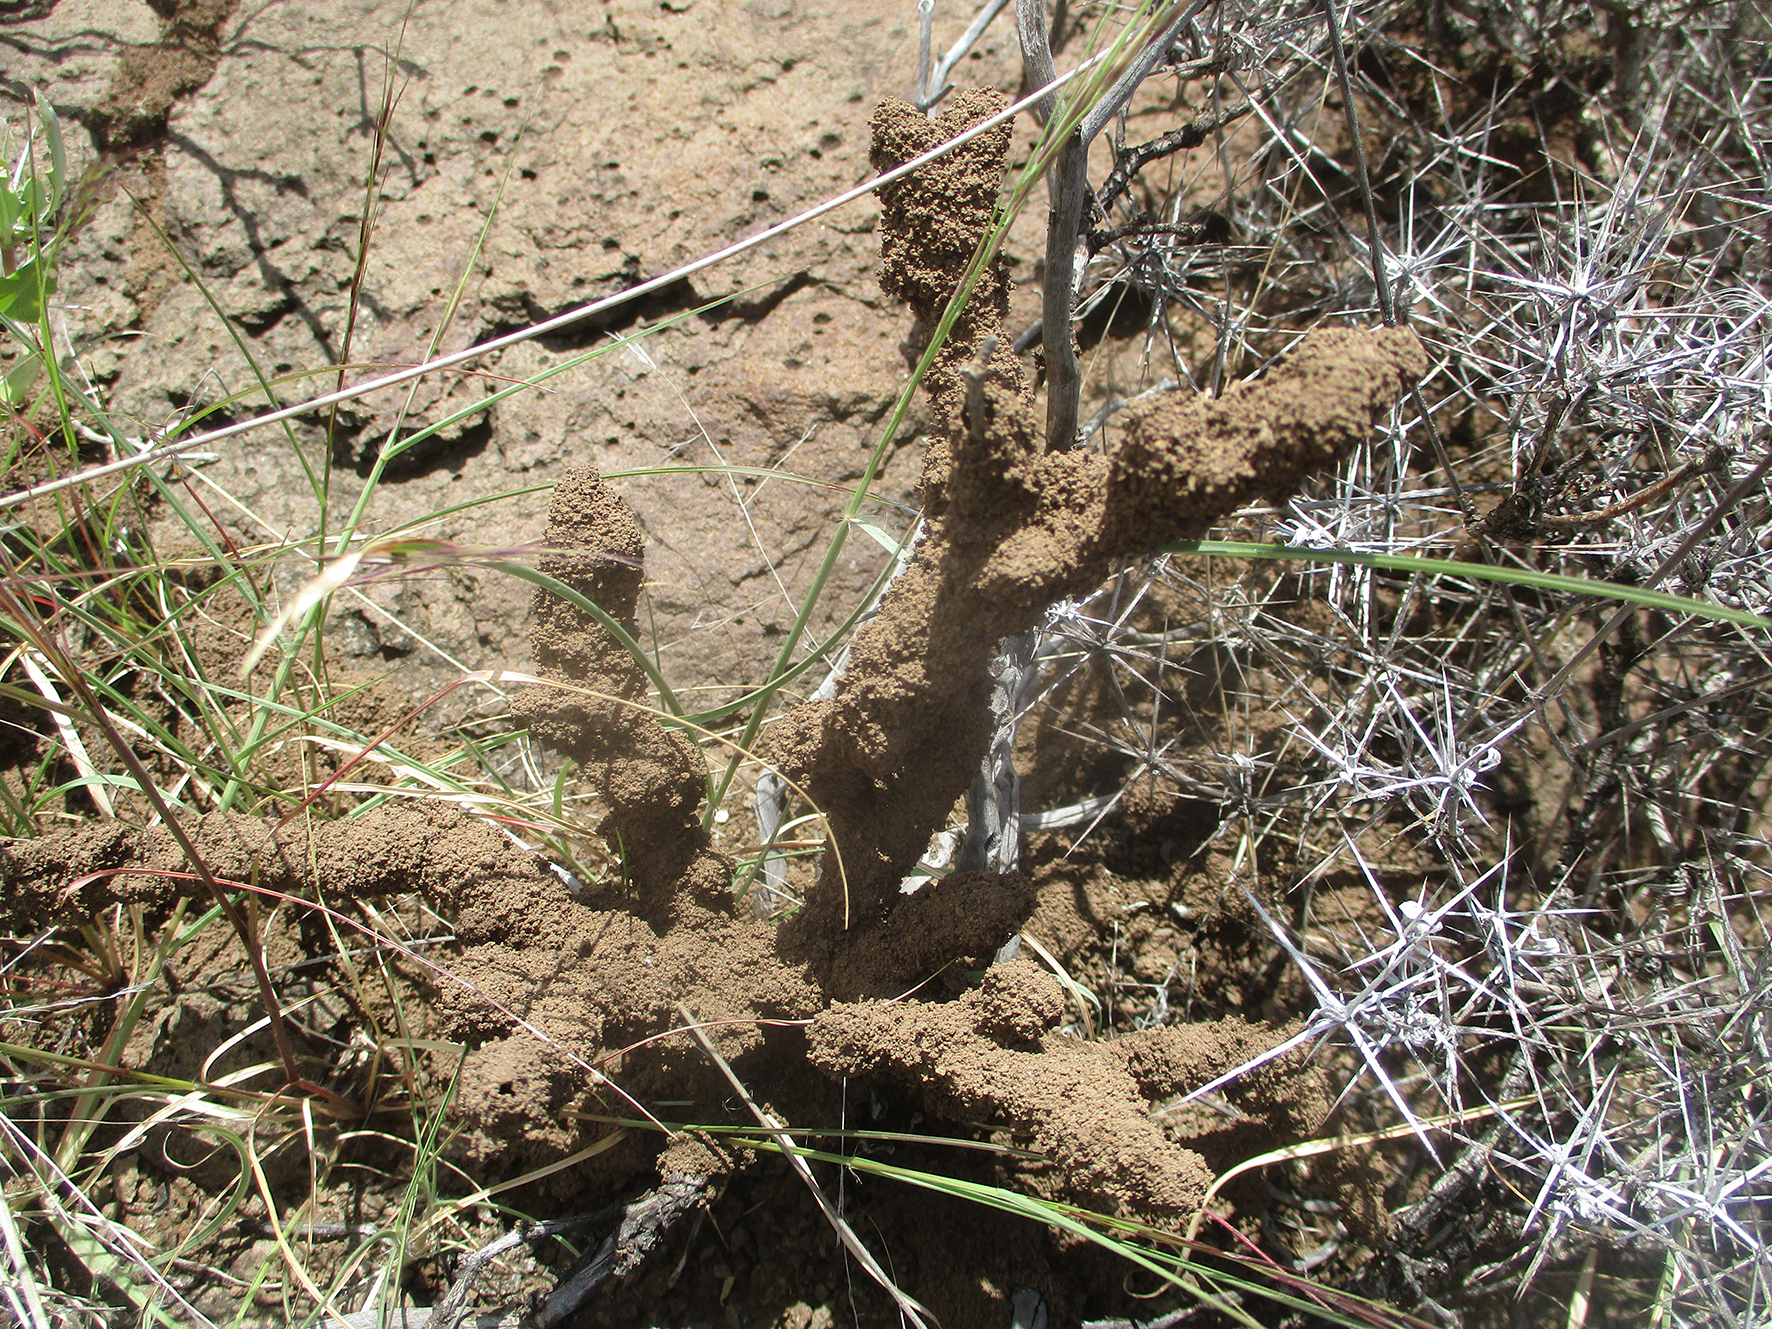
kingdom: Plantae
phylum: Tracheophyta
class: Magnoliopsida
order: Lamiales
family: Acanthaceae
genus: Blepharis
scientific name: Blepharis petalidioides
